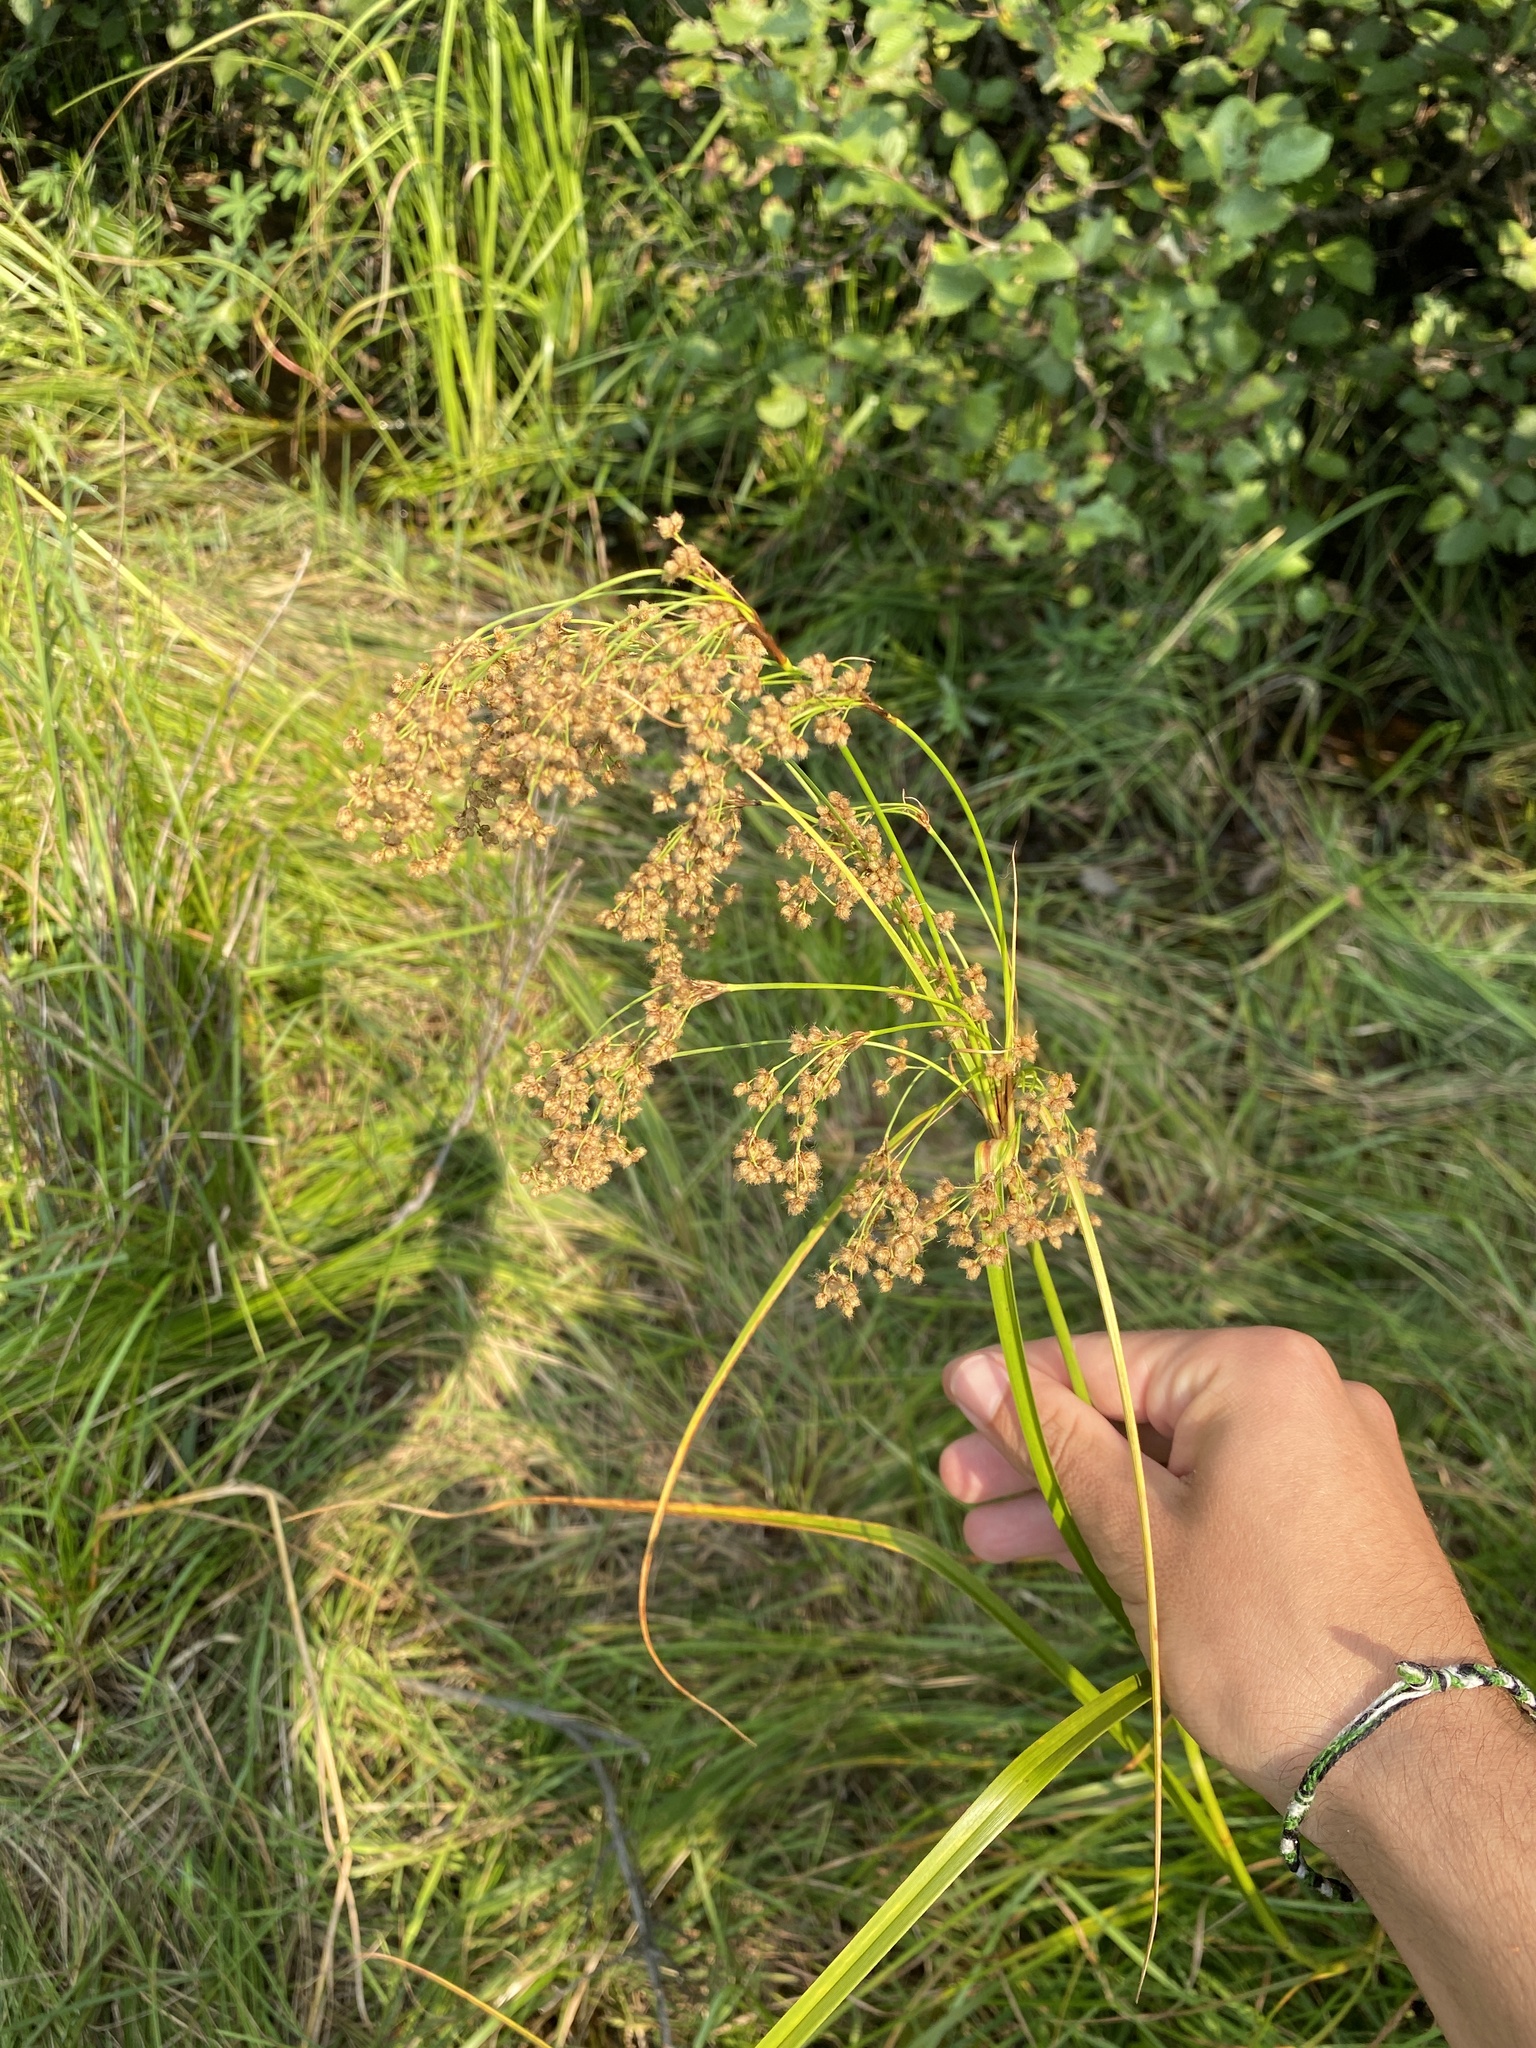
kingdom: Plantae
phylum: Tracheophyta
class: Liliopsida
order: Poales
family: Cyperaceae
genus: Scirpus
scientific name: Scirpus cyperinus
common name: Black-sheathed bulrush
